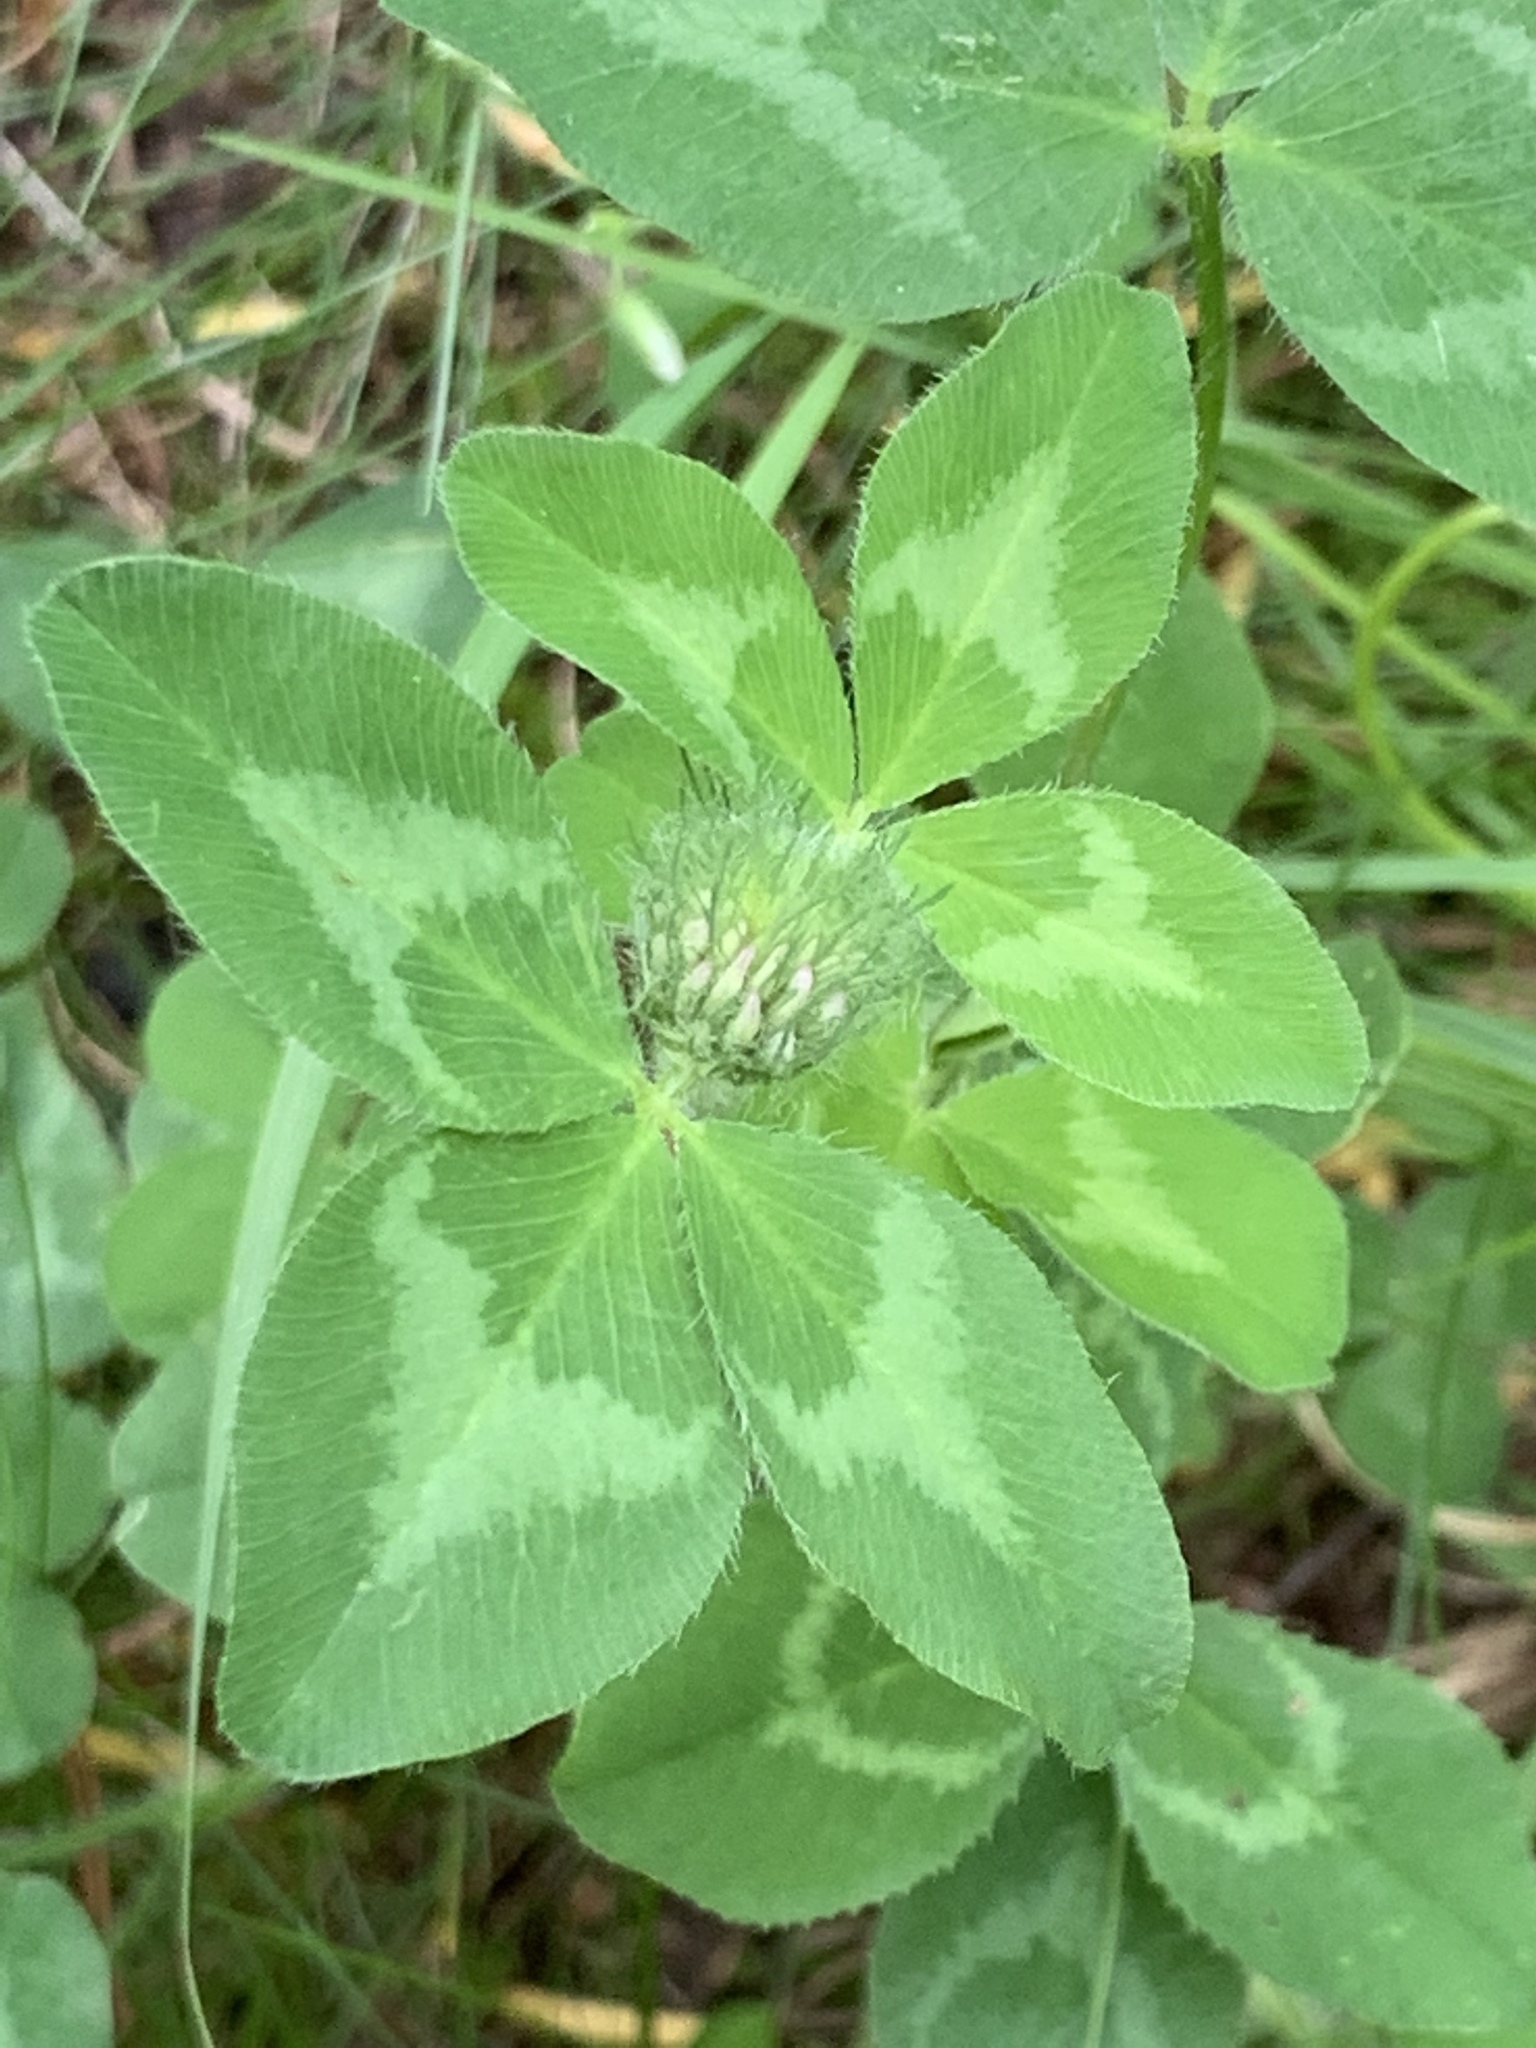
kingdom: Plantae
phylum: Tracheophyta
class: Magnoliopsida
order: Fabales
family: Fabaceae
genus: Trifolium
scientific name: Trifolium pratense
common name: Red clover
